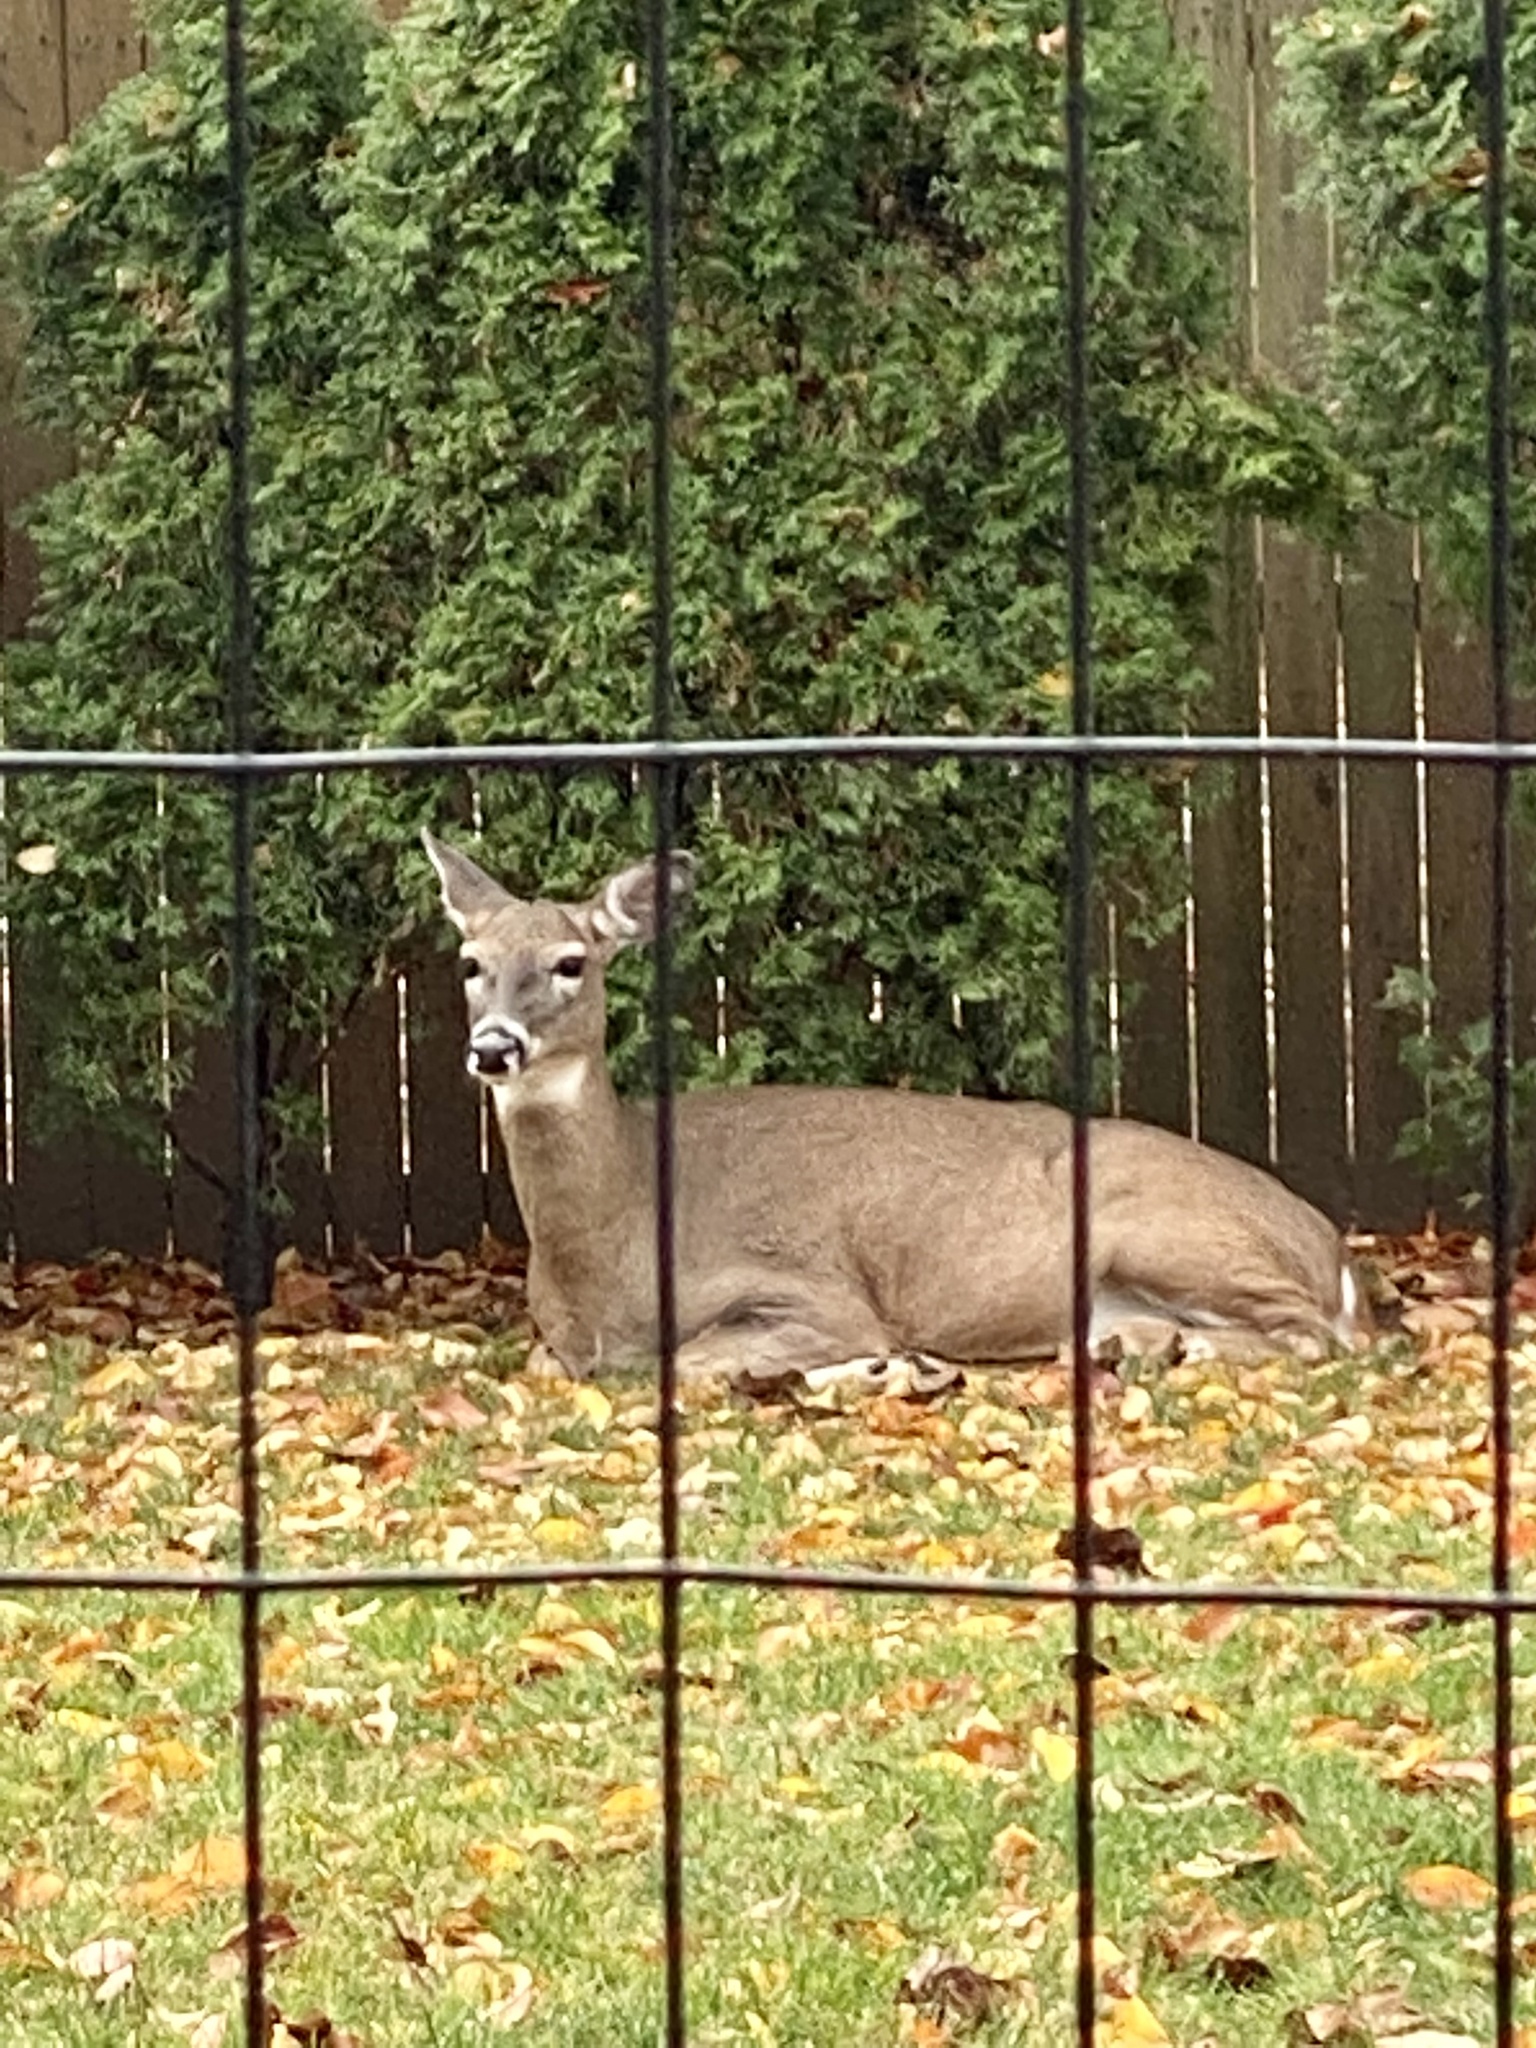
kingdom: Animalia
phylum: Chordata
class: Mammalia
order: Artiodactyla
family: Cervidae
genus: Odocoileus
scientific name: Odocoileus virginianus
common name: White-tailed deer
